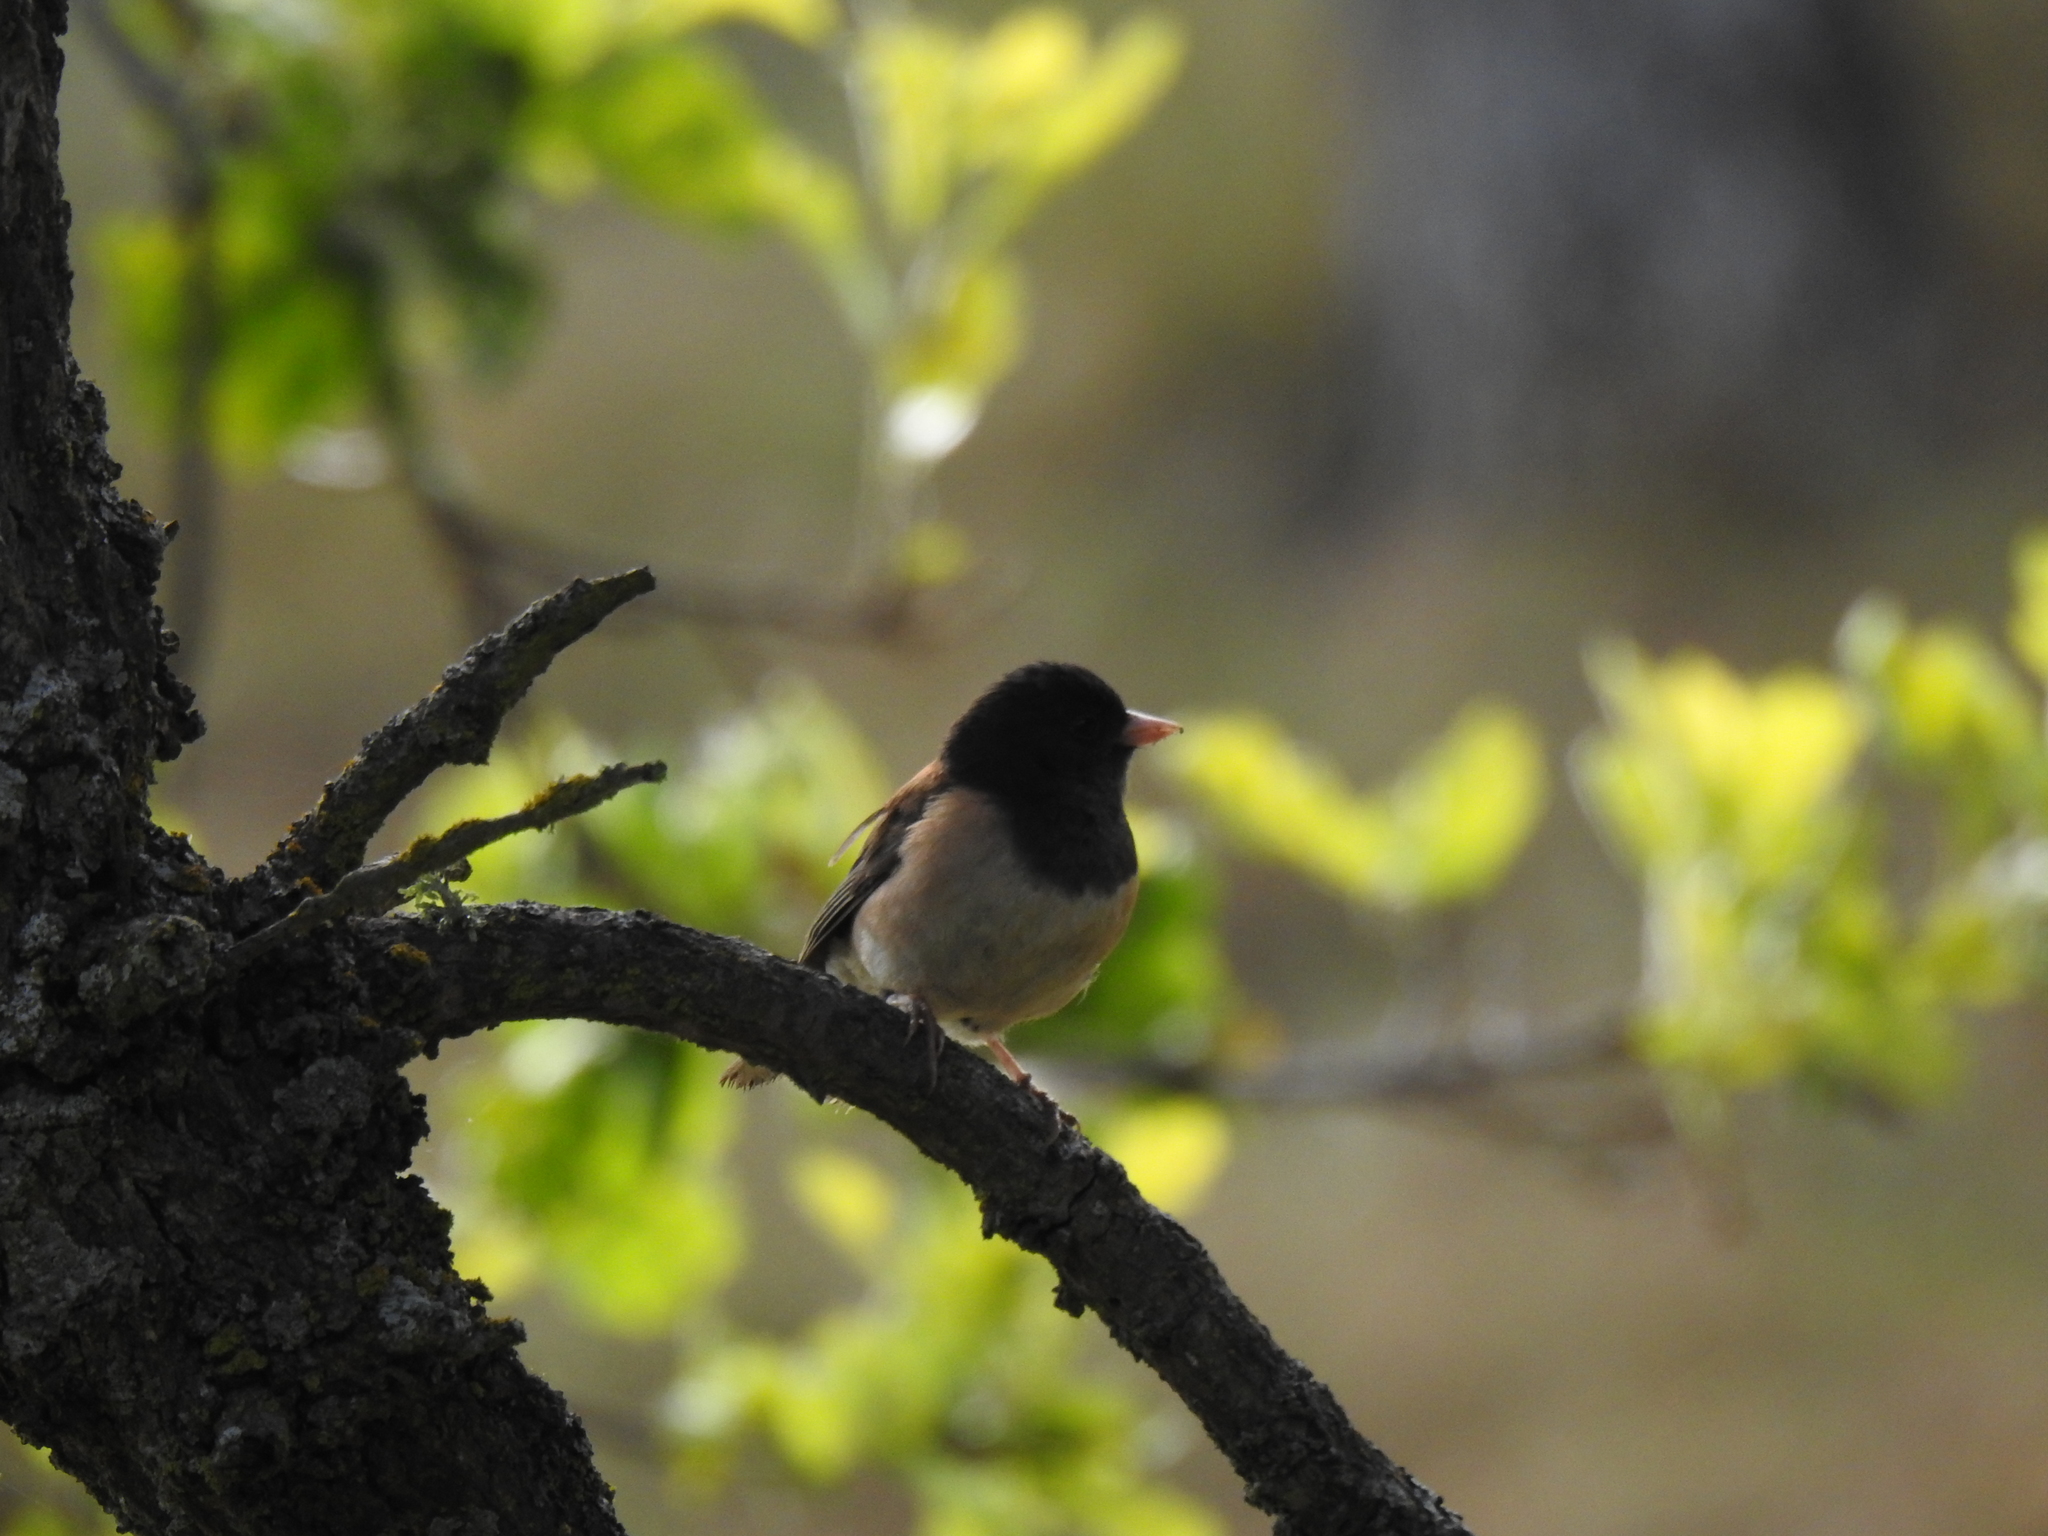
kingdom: Animalia
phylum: Chordata
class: Aves
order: Passeriformes
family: Passerellidae
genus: Junco
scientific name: Junco hyemalis
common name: Dark-eyed junco
